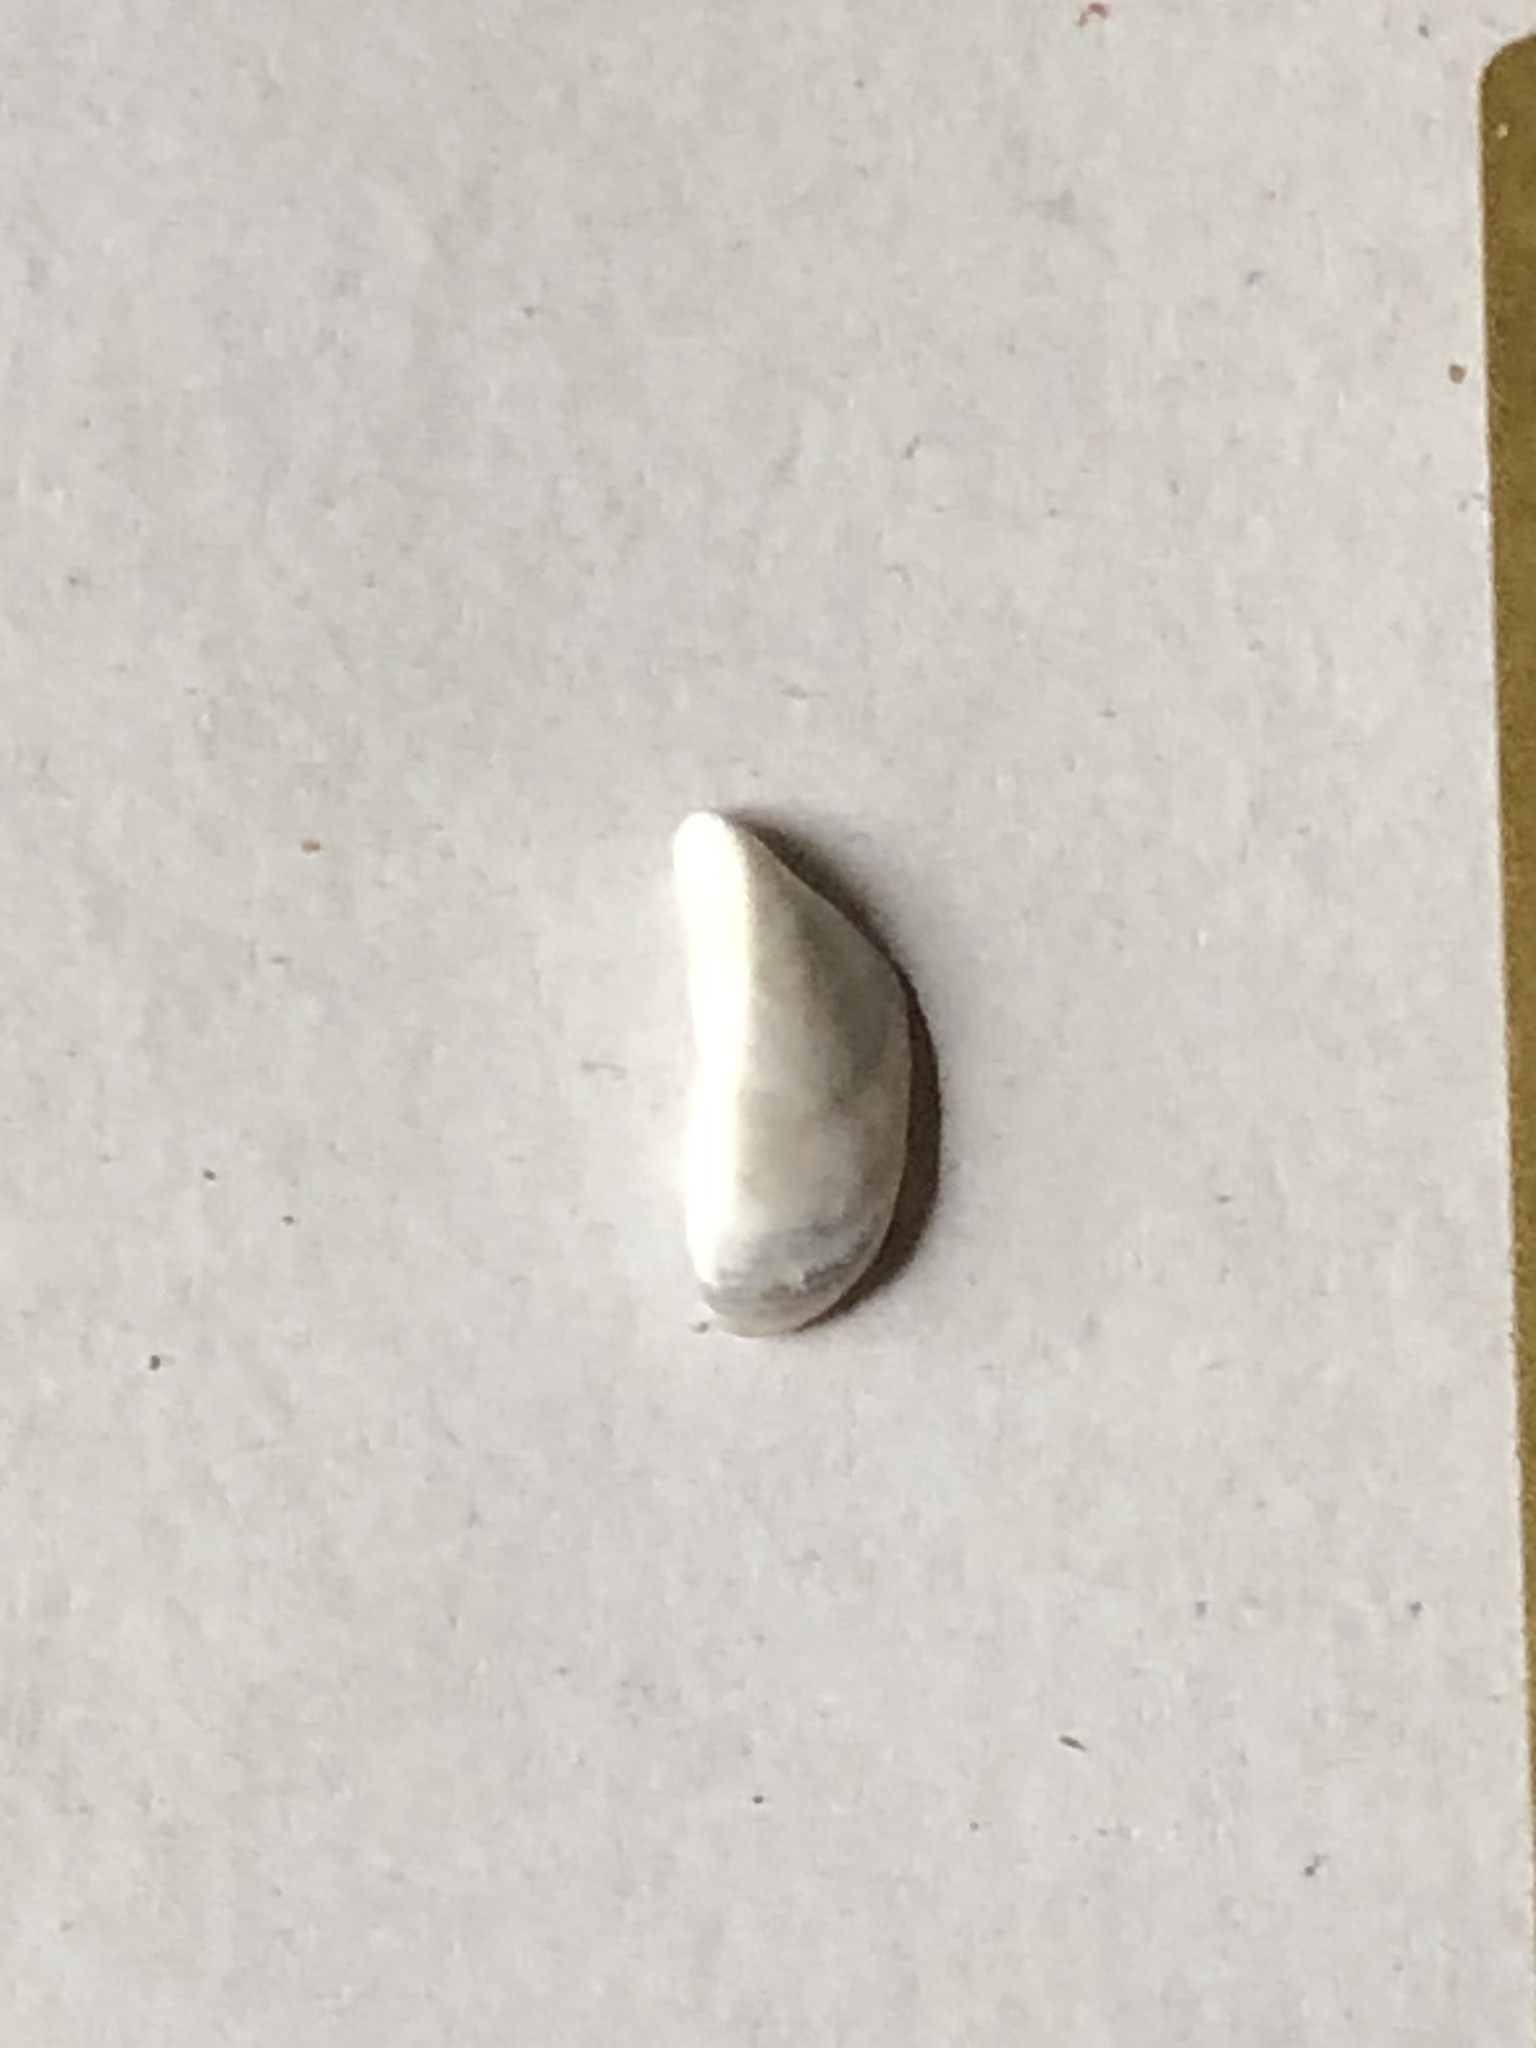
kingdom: Animalia
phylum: Mollusca
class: Bivalvia
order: Myida
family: Dreissenidae
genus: Dreissena
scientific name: Dreissena polymorpha
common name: Zebra mussel
